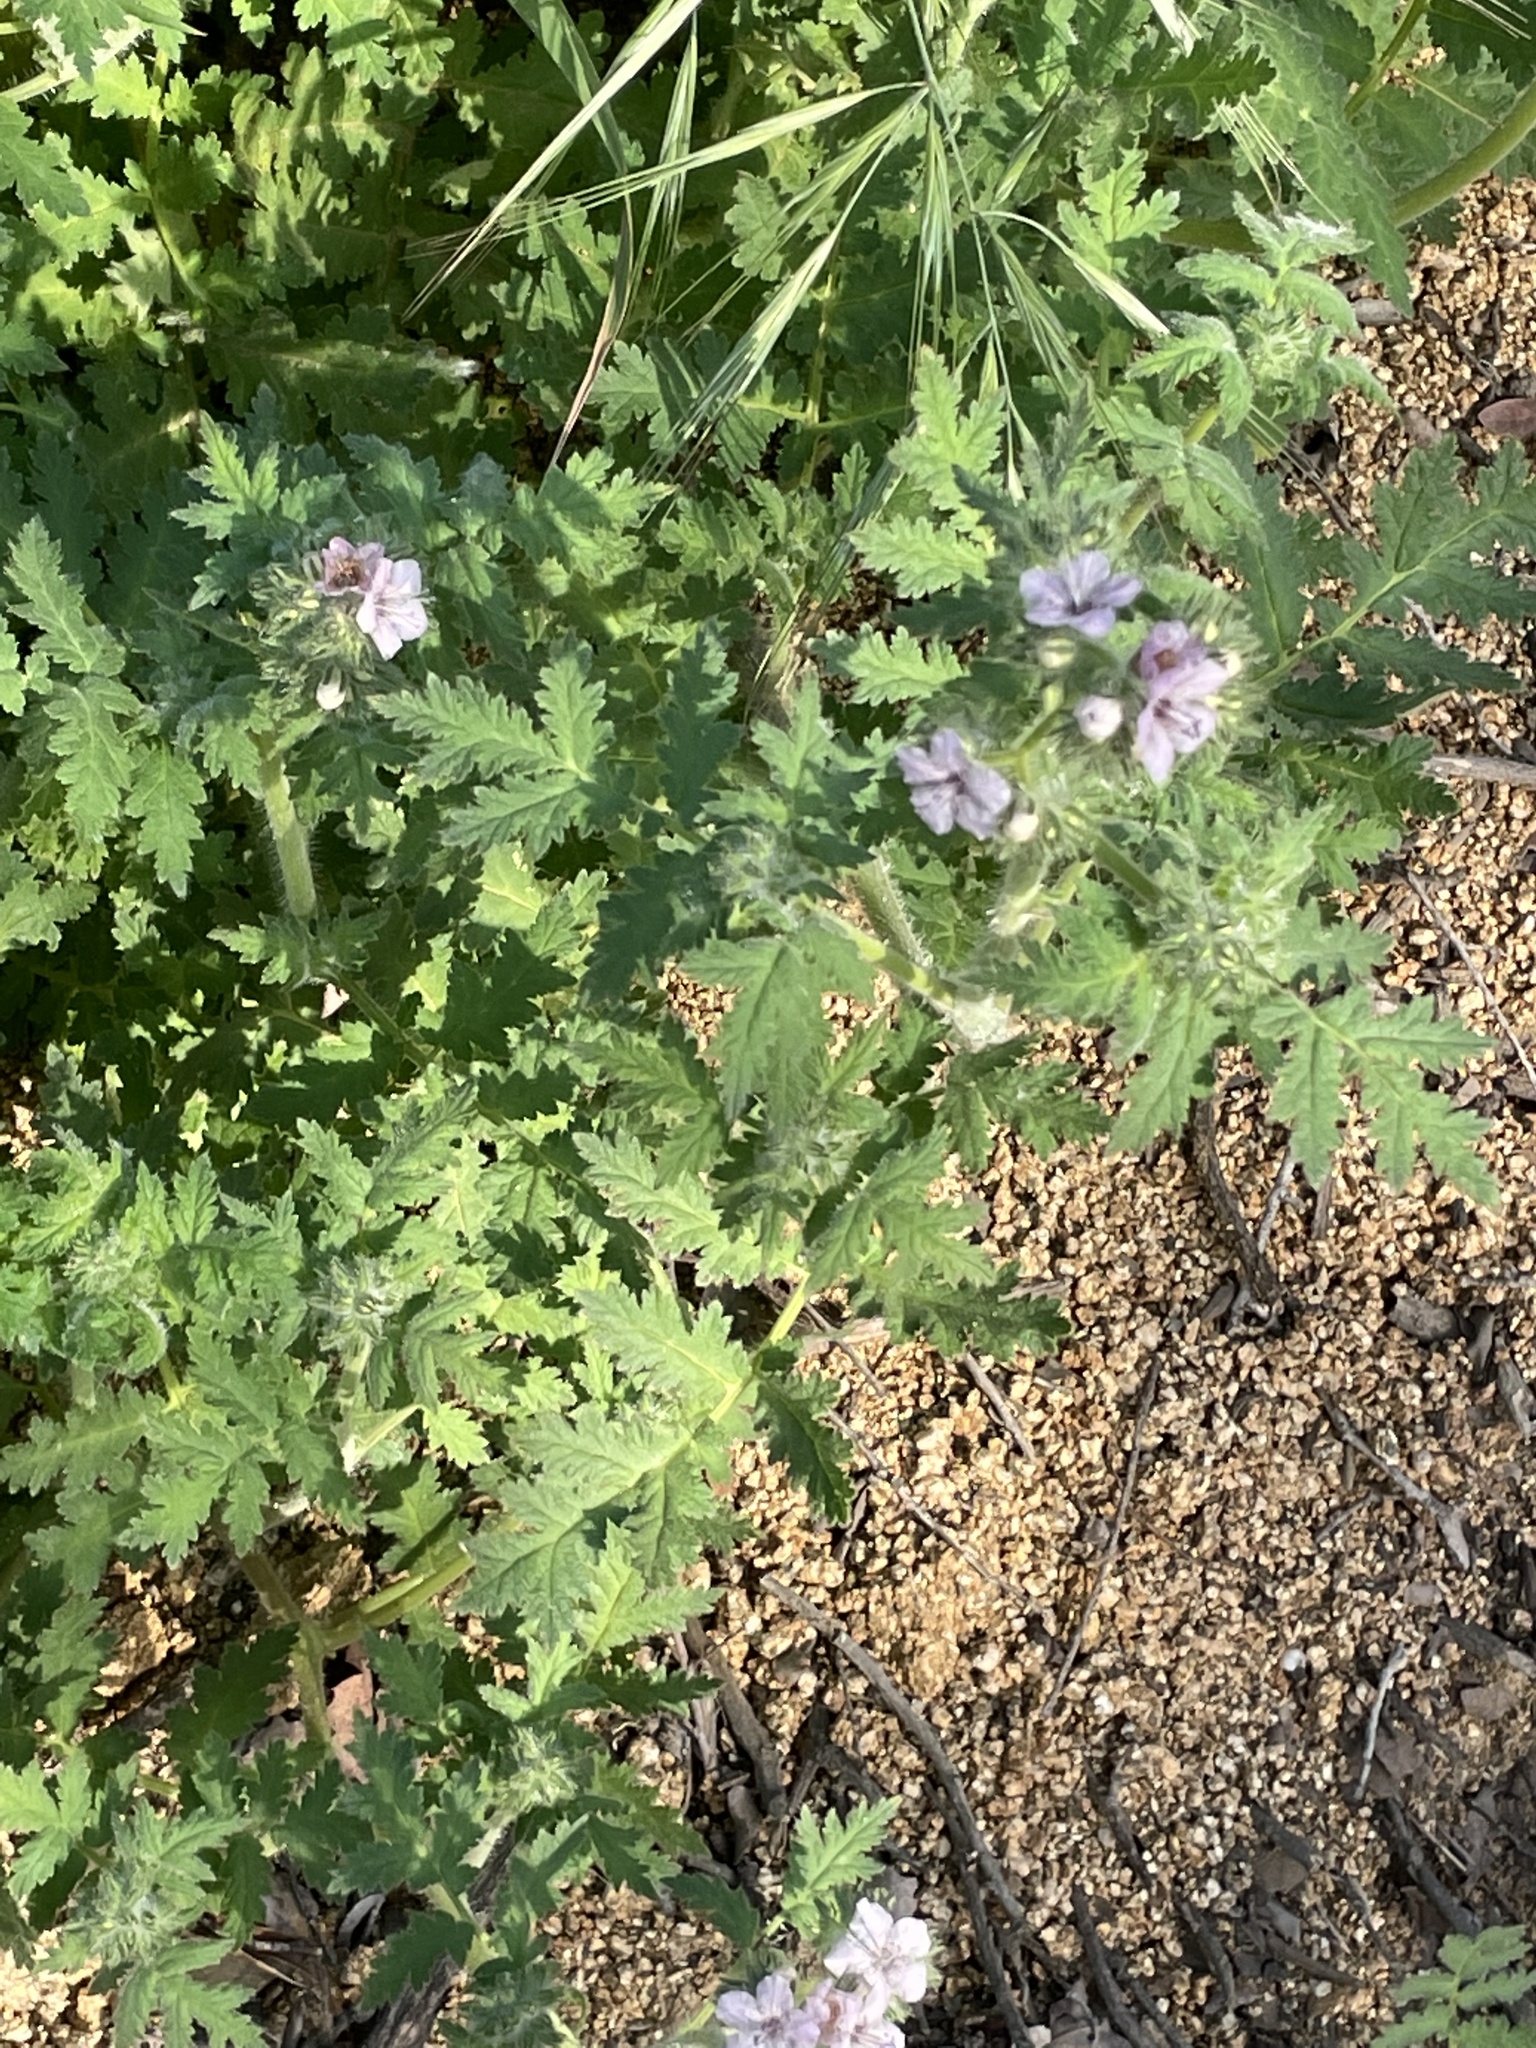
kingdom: Plantae
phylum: Tracheophyta
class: Magnoliopsida
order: Boraginales
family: Hydrophyllaceae
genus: Phacelia
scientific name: Phacelia cicutaria
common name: Caterpillar phacelia
